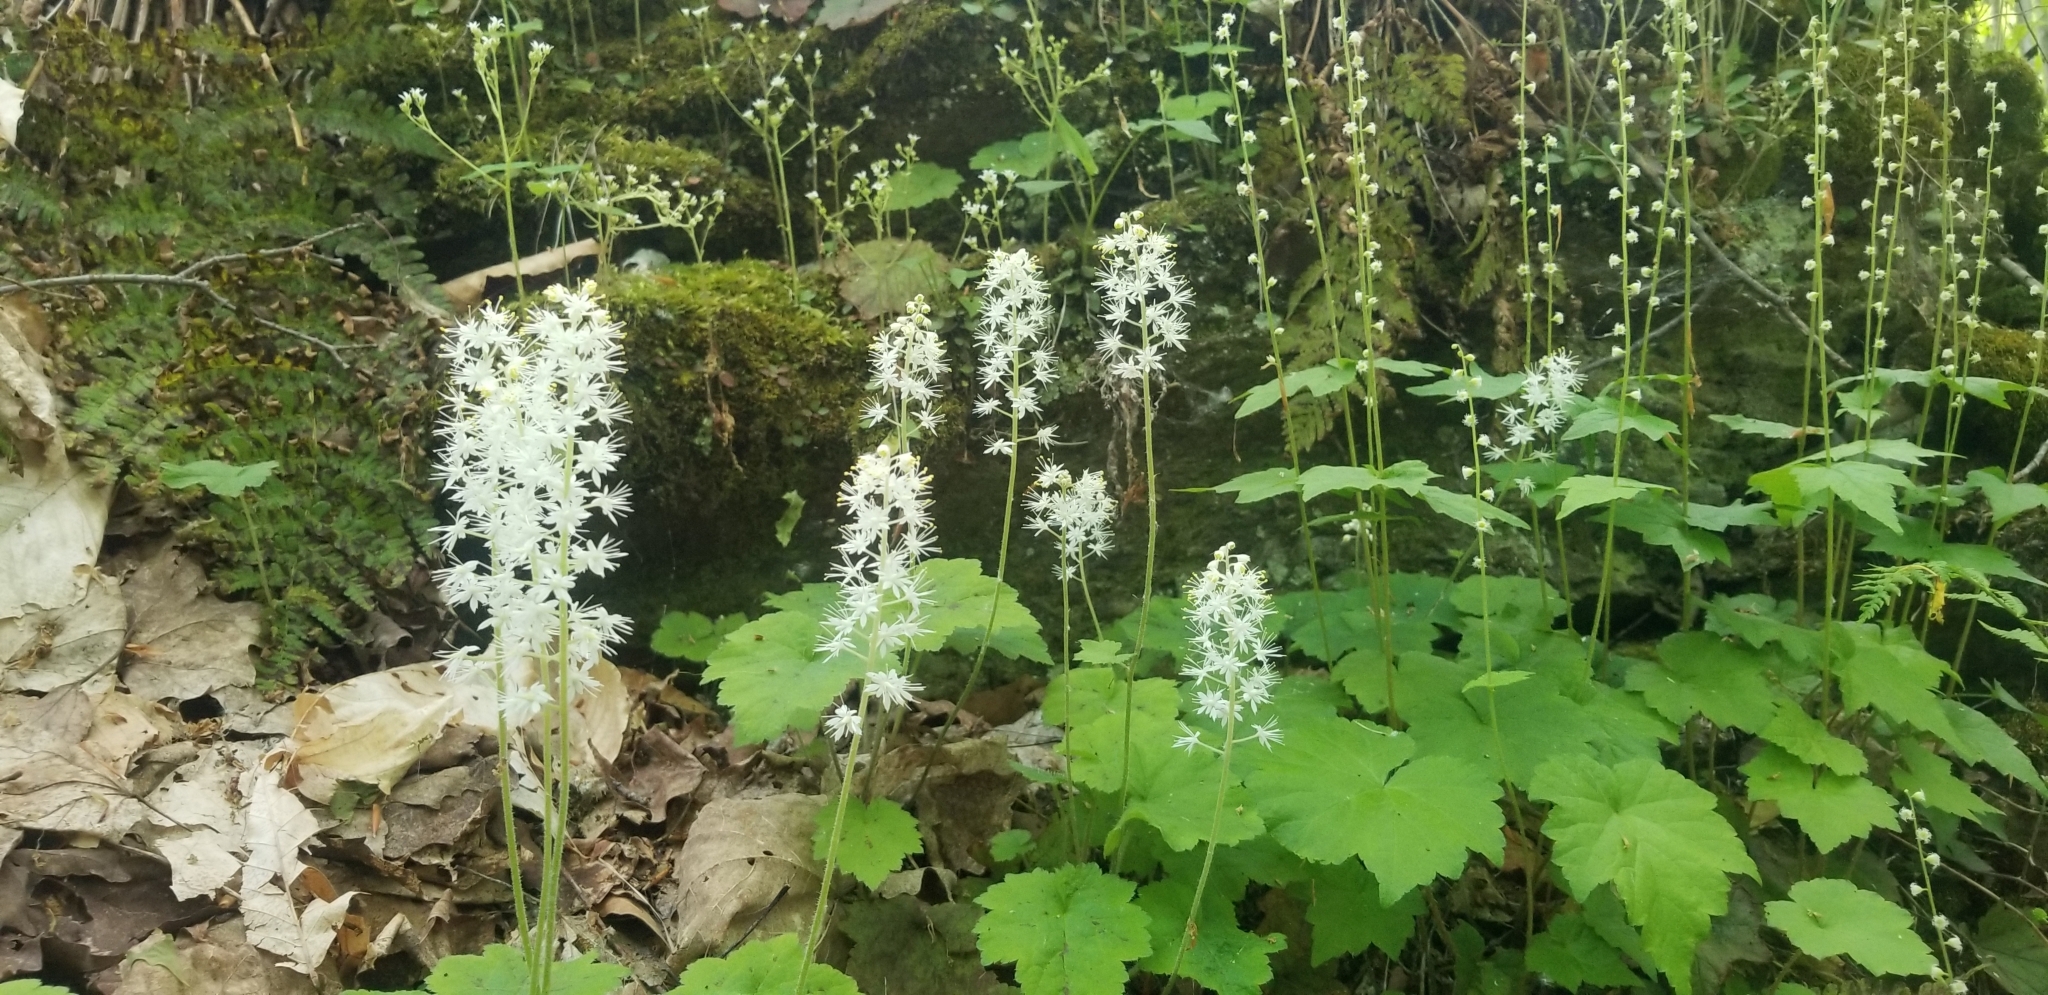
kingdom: Plantae
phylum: Tracheophyta
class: Magnoliopsida
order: Saxifragales
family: Saxifragaceae
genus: Tiarella
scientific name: Tiarella stolonifera
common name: Stoloniferous foamflower
